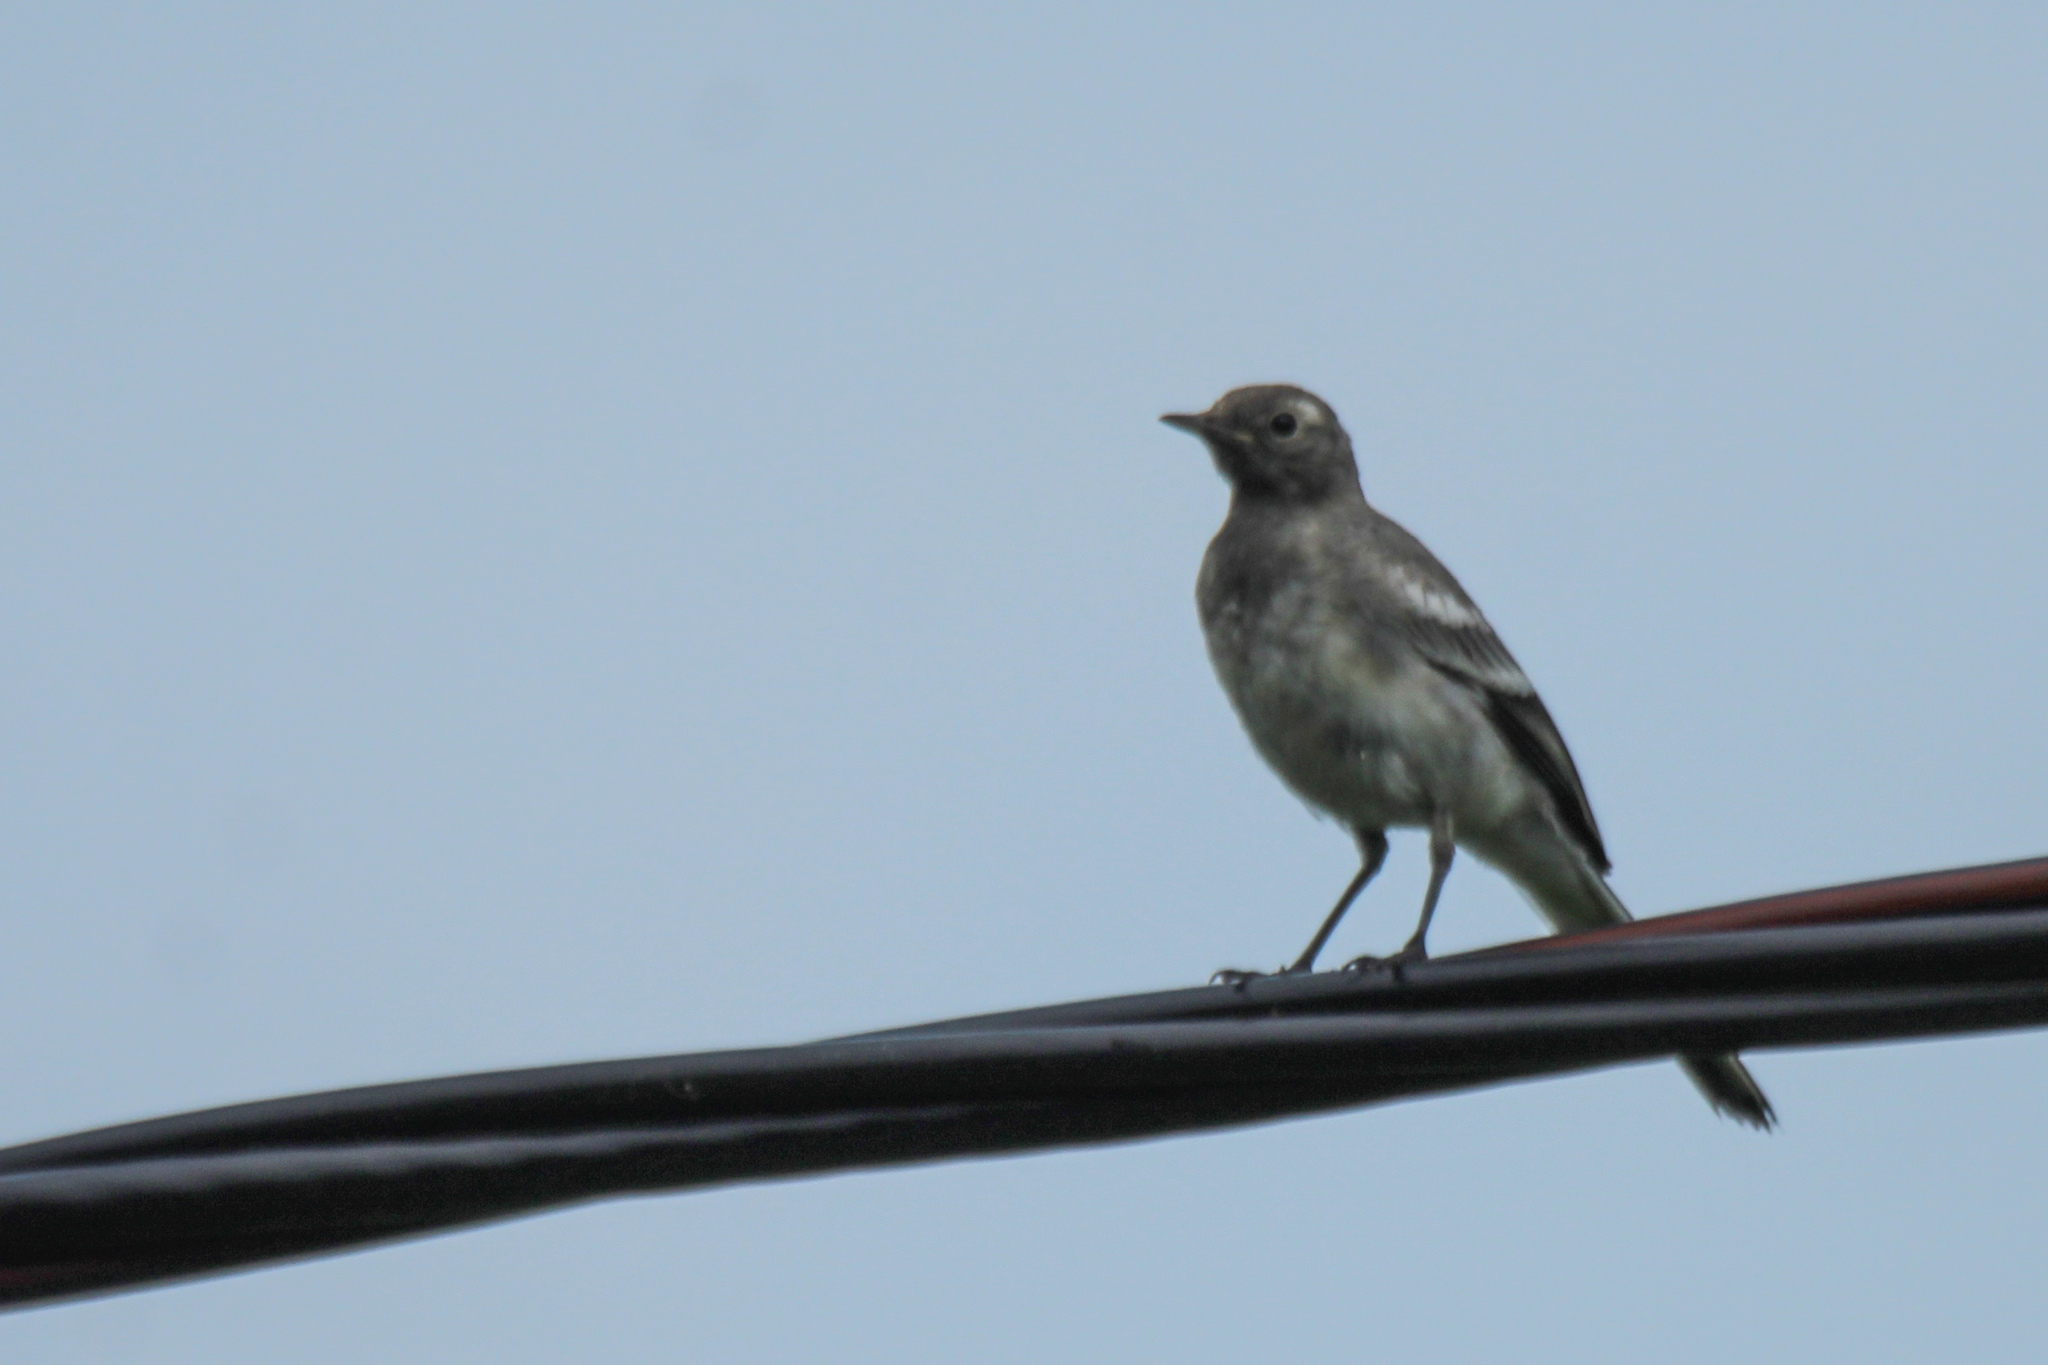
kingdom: Animalia
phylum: Chordata
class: Aves
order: Passeriformes
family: Motacillidae
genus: Motacilla
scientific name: Motacilla alba
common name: White wagtail
